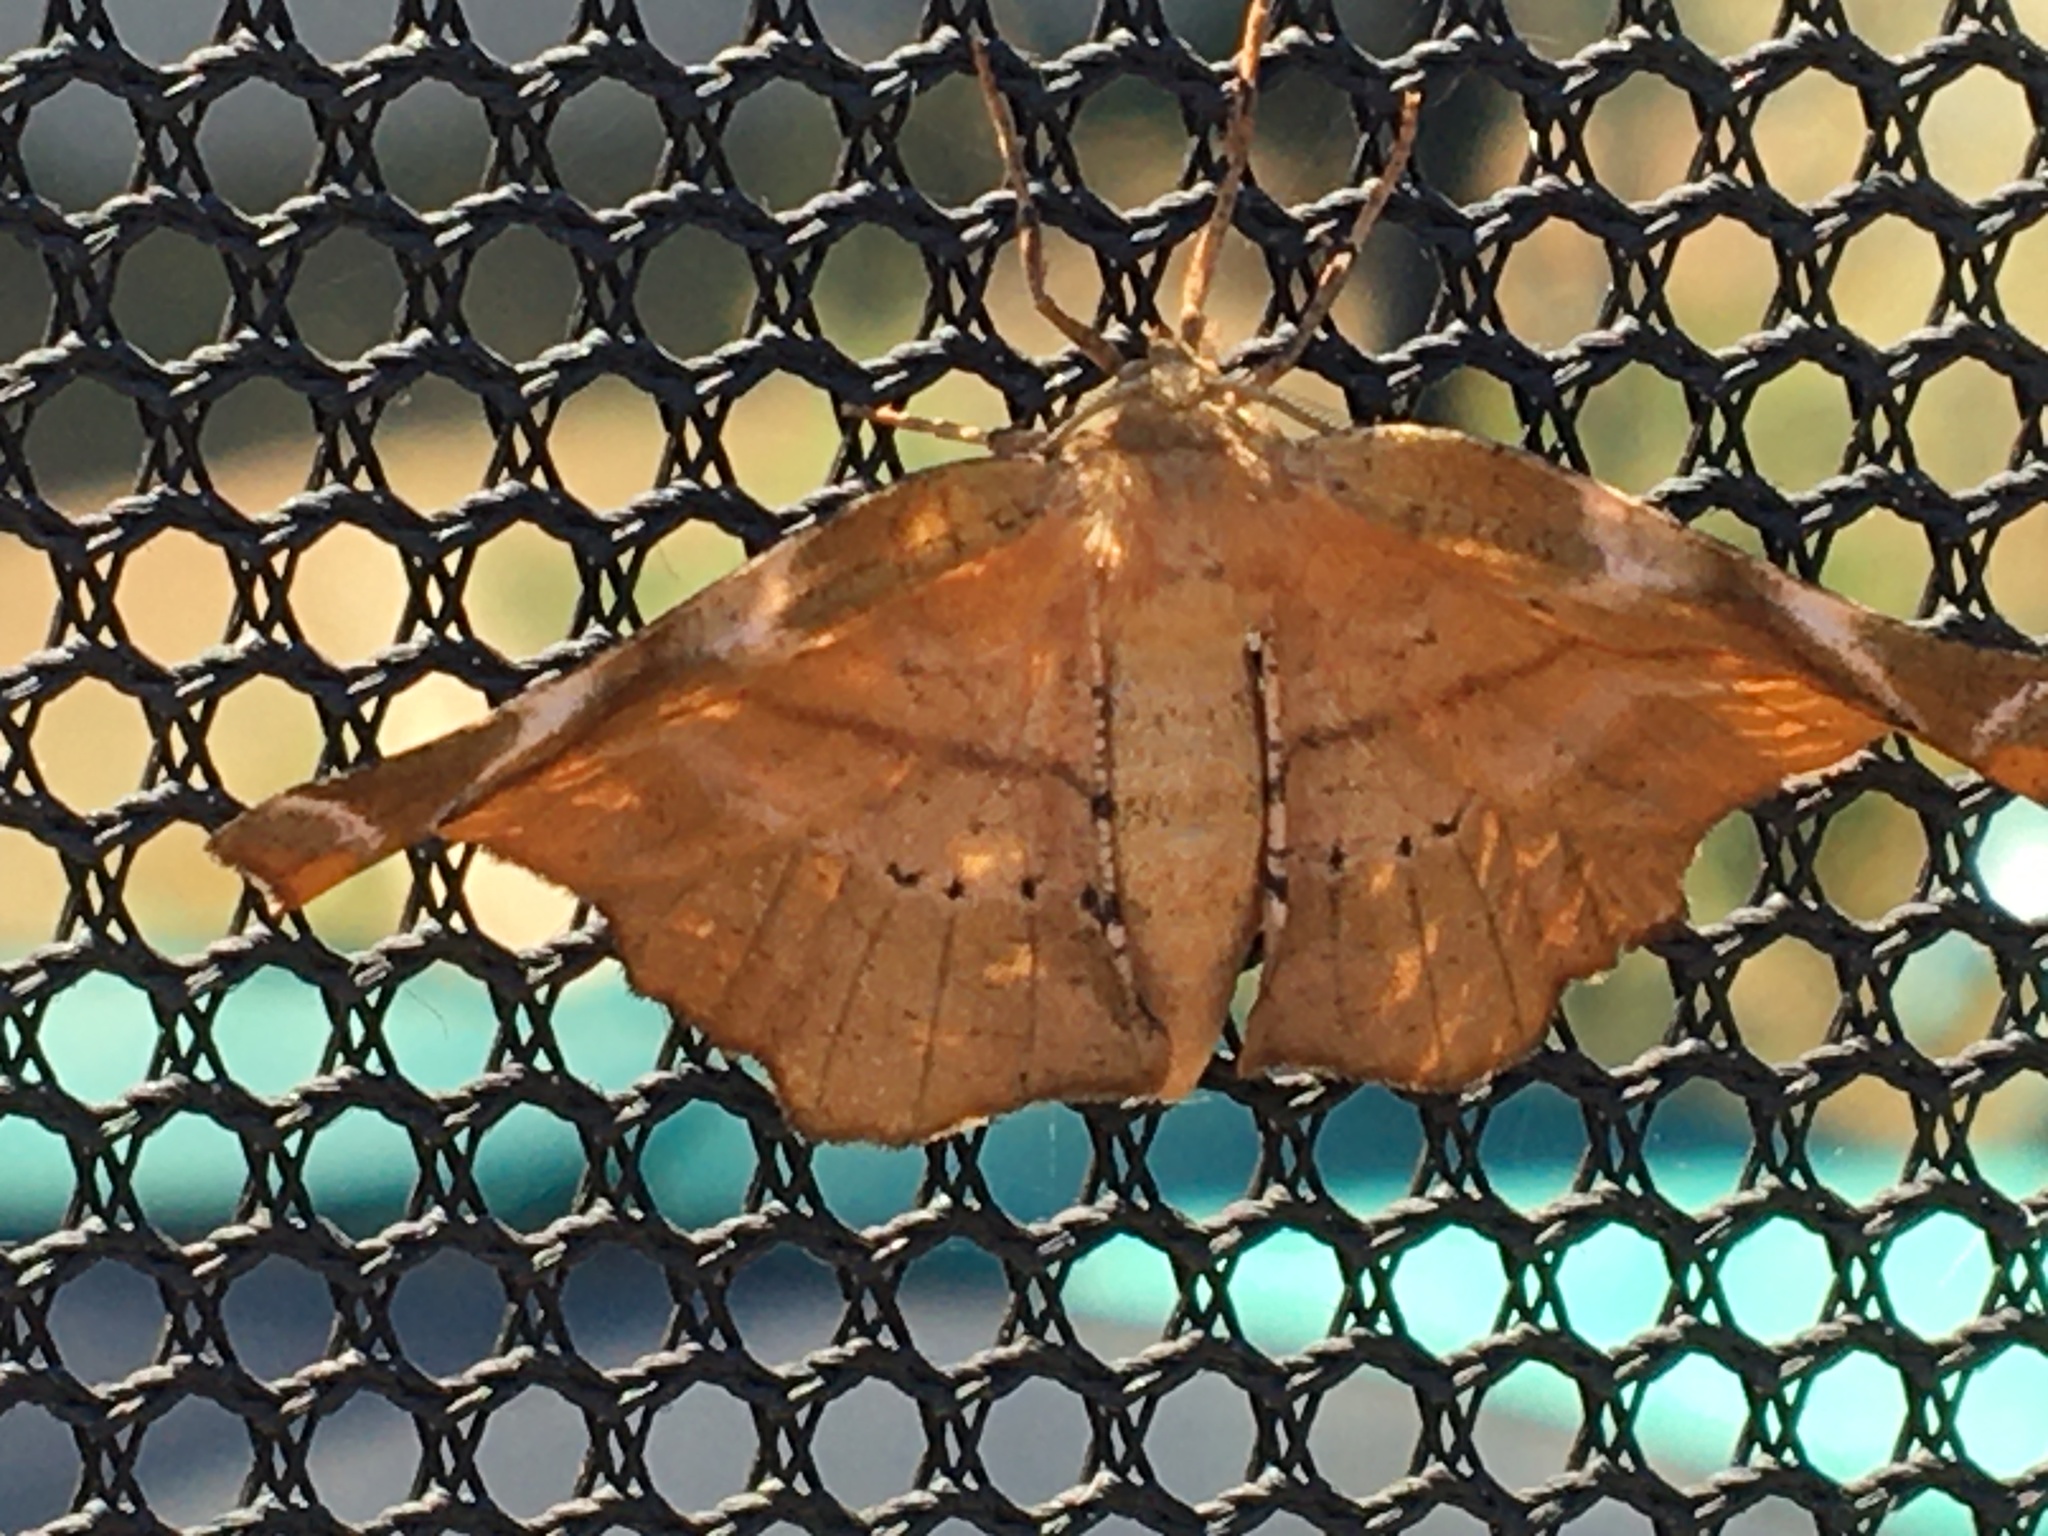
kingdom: Animalia
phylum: Arthropoda
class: Insecta
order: Lepidoptera
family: Geometridae
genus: Apeira
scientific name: Apeira syringaria
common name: Lilac beauty
